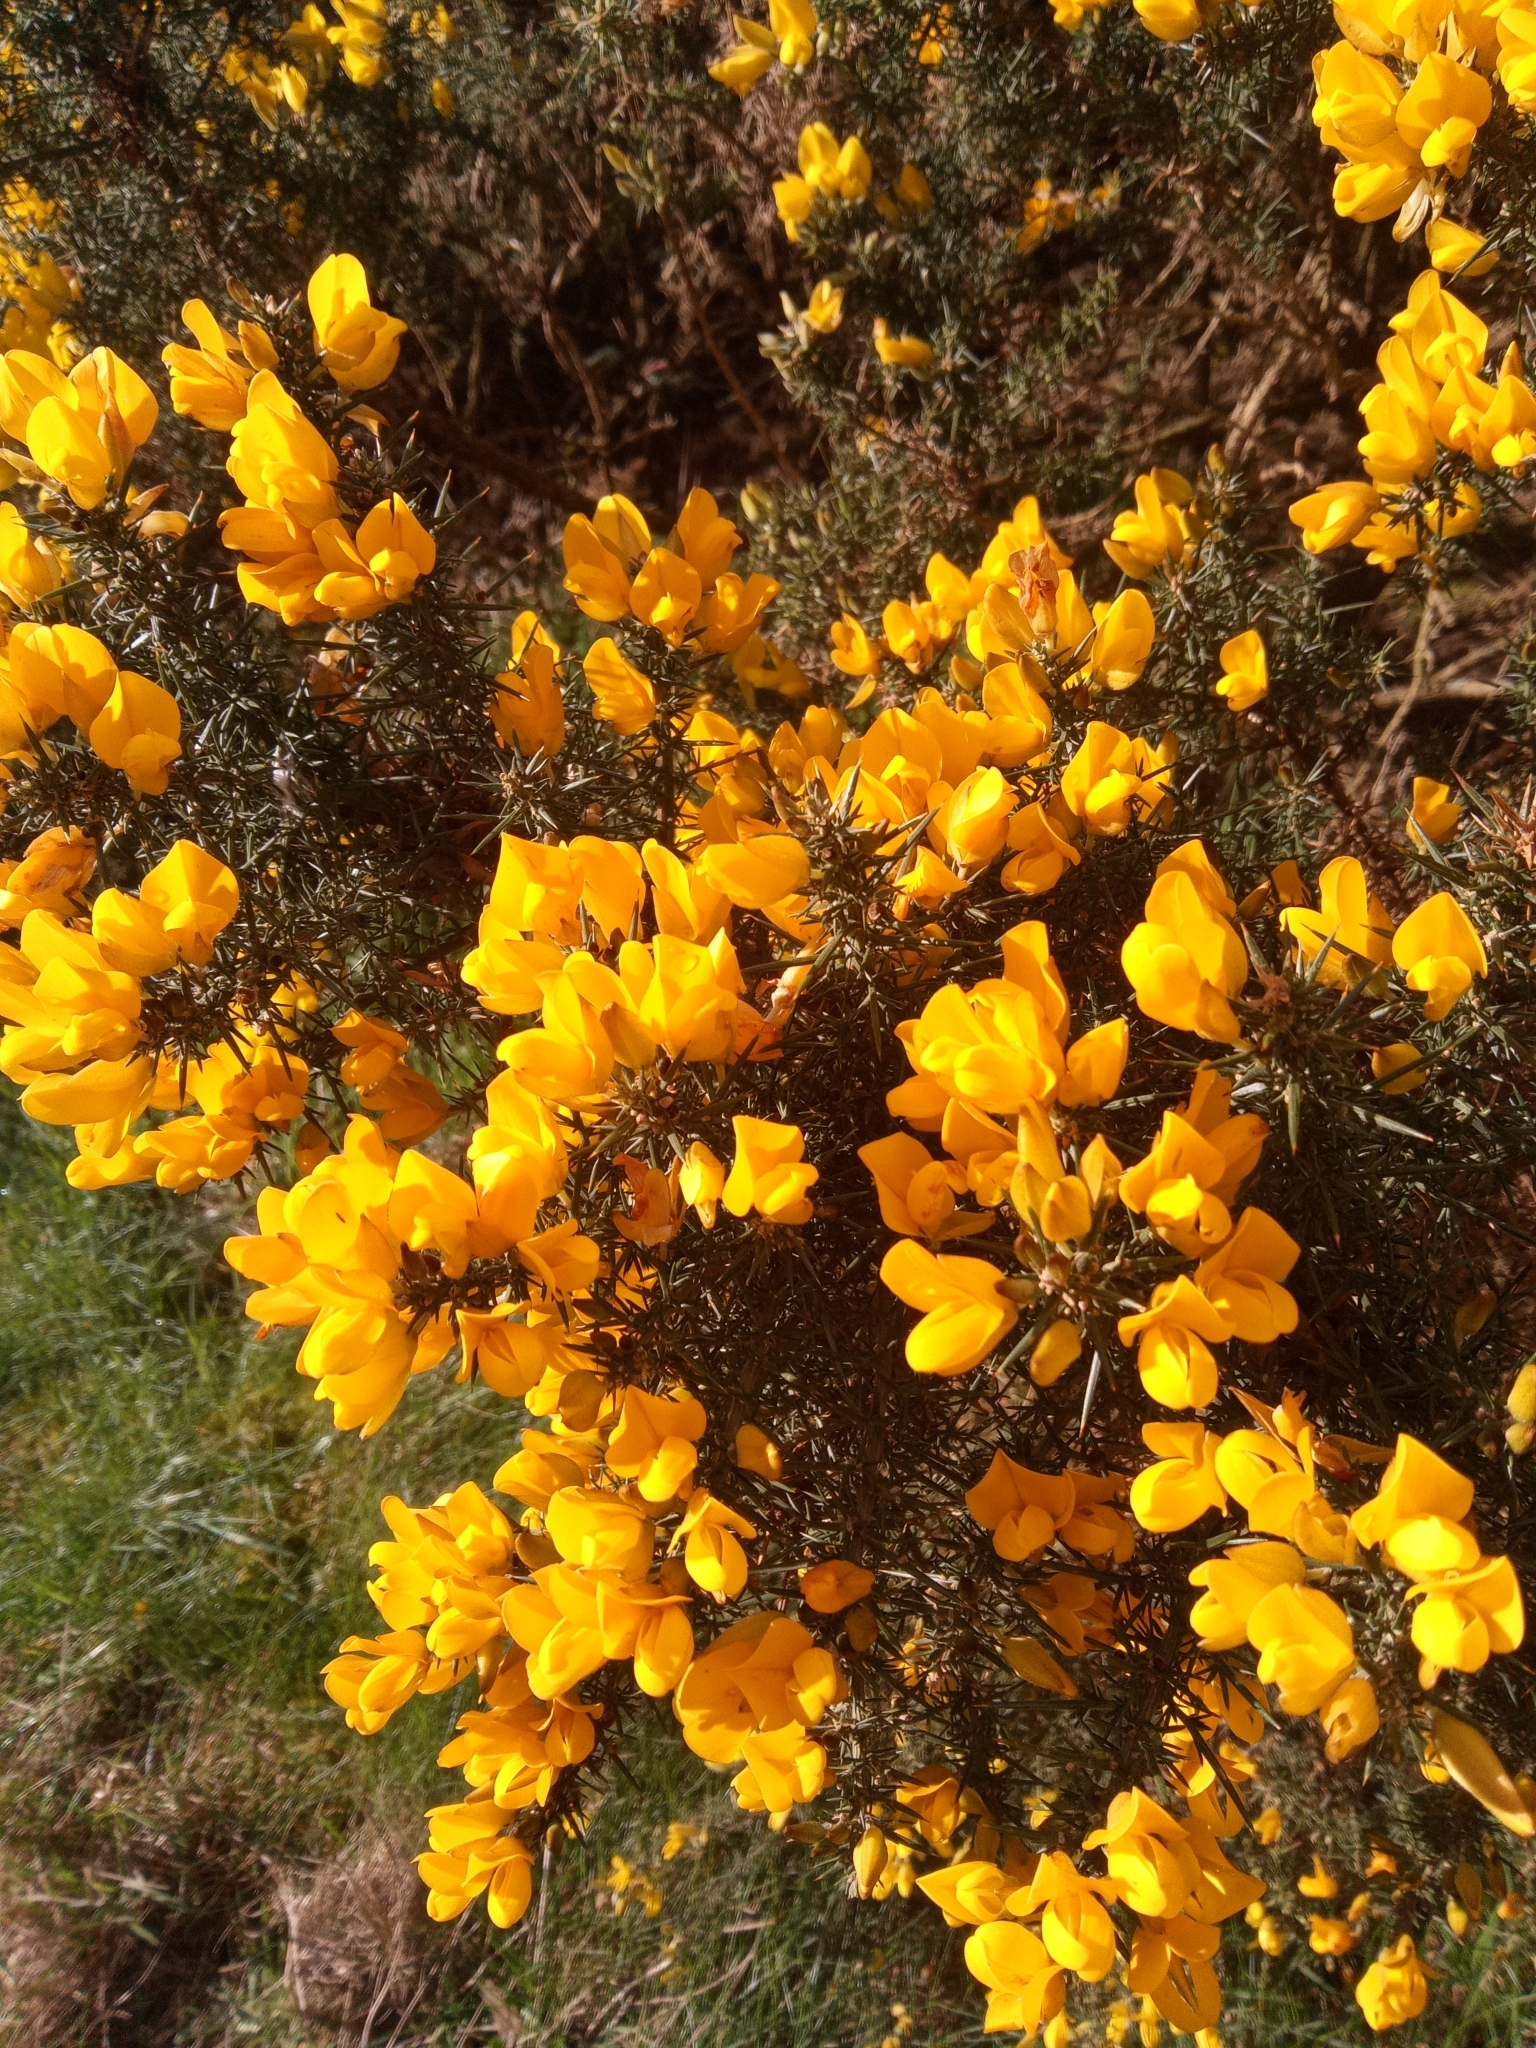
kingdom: Plantae
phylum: Tracheophyta
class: Magnoliopsida
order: Fabales
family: Fabaceae
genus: Ulex
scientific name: Ulex europaeus
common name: Common gorse
